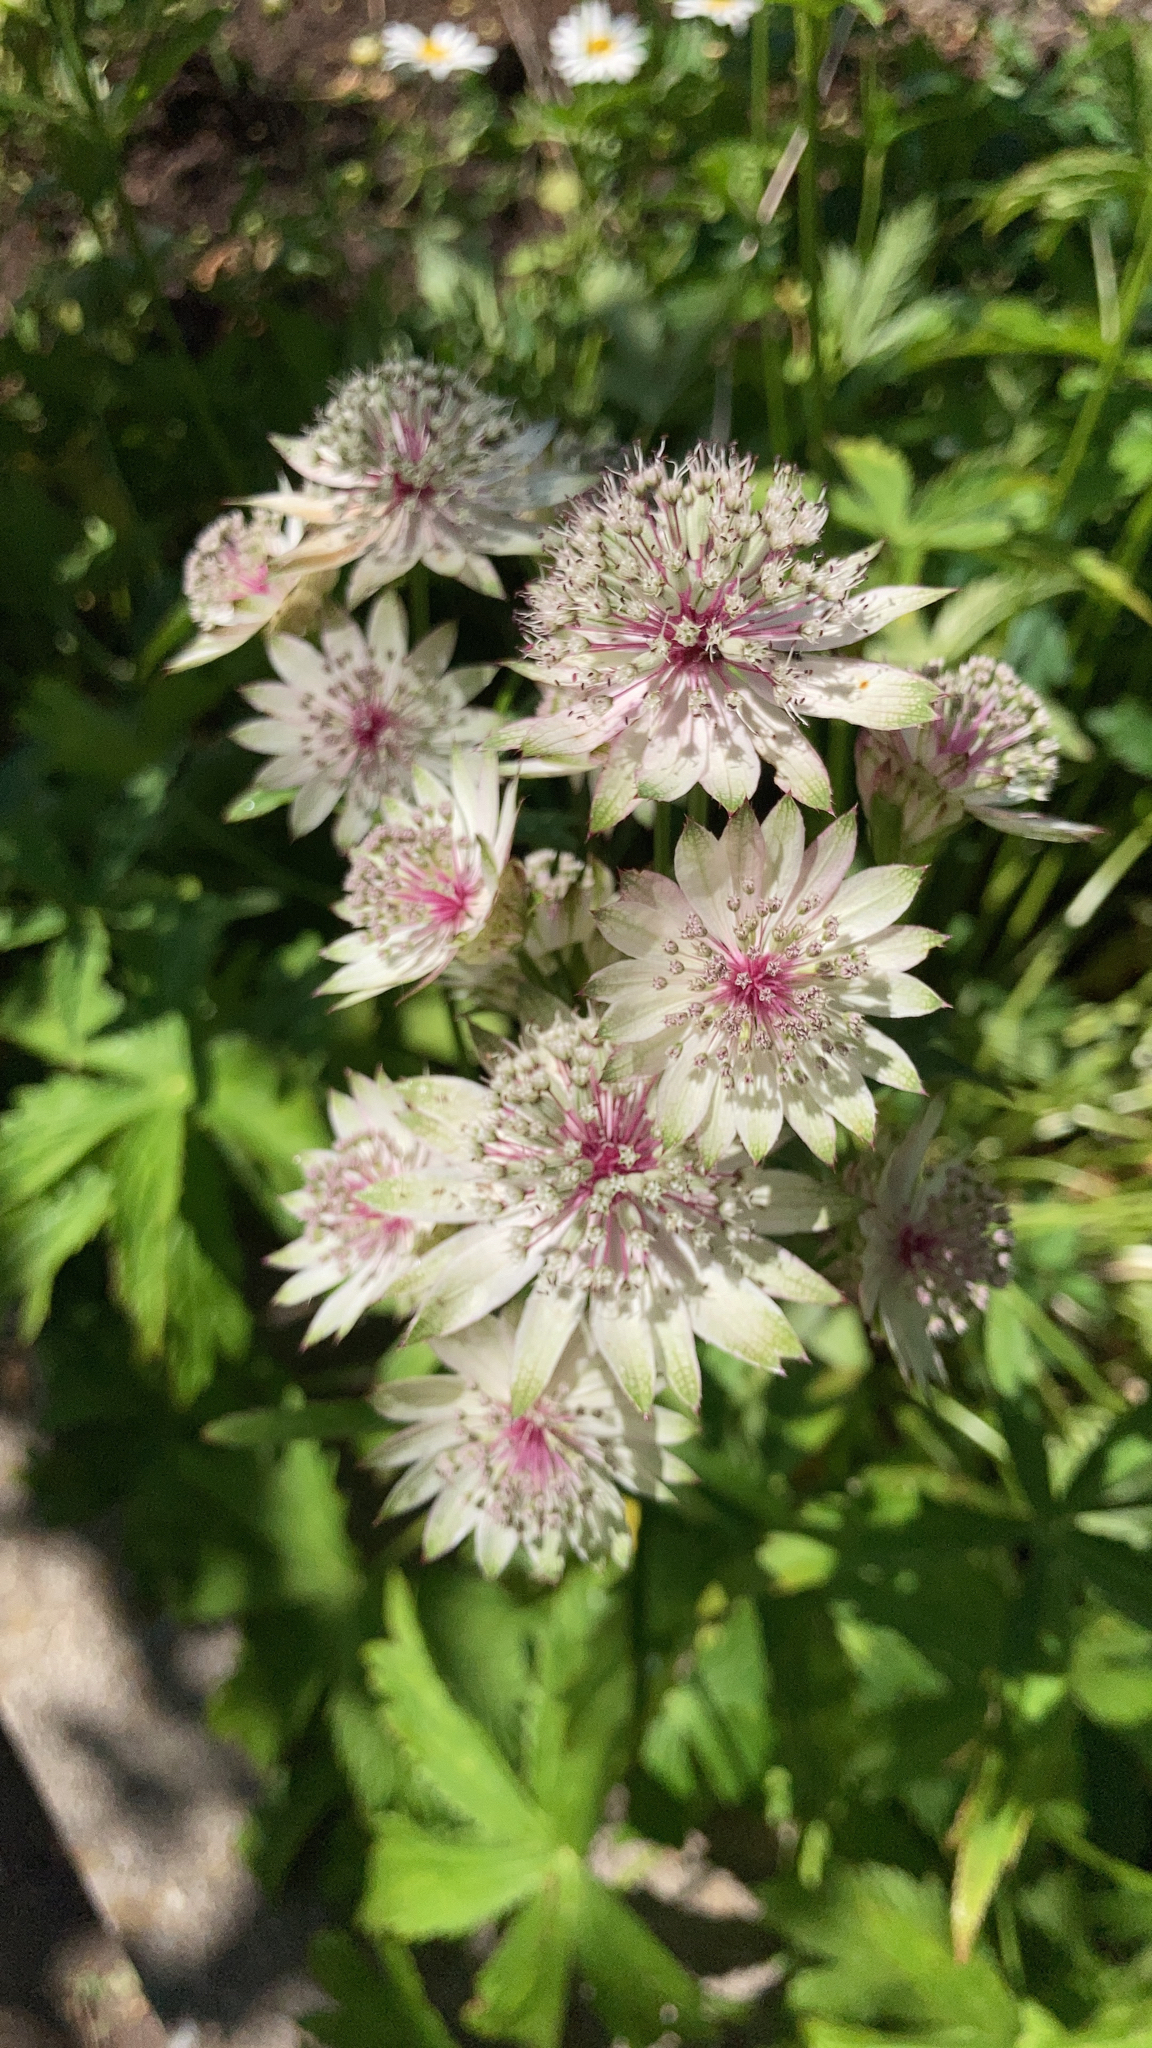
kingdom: Plantae
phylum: Tracheophyta
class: Magnoliopsida
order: Apiales
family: Apiaceae
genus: Astrantia
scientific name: Astrantia major
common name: Greater masterwort
